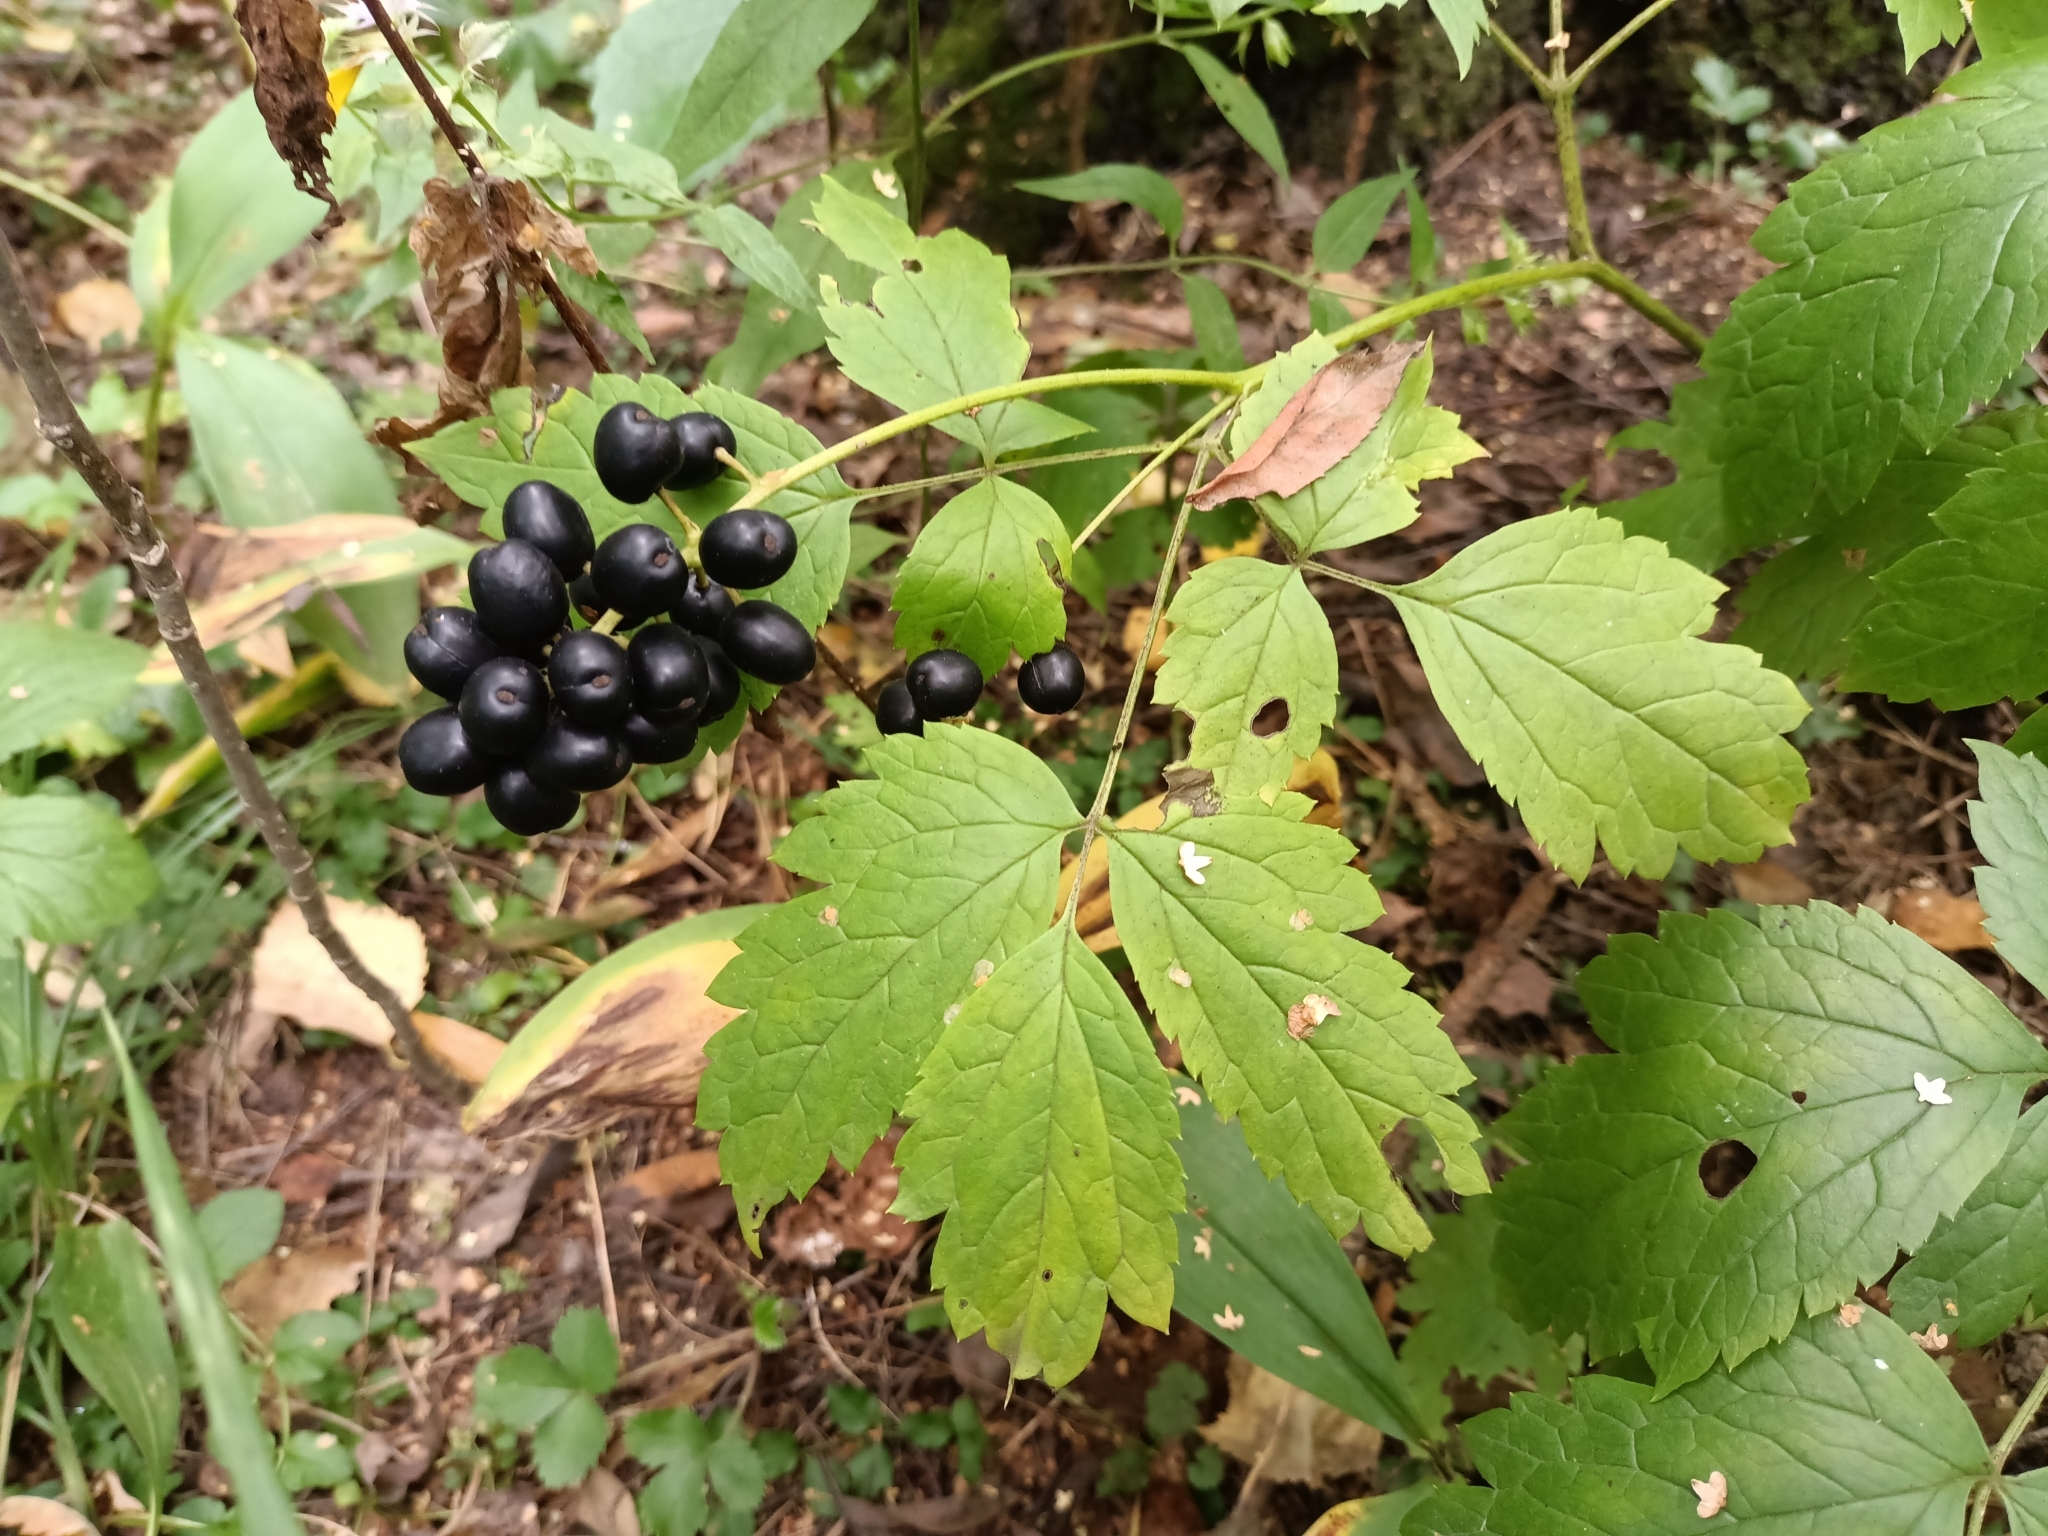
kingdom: Plantae
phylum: Tracheophyta
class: Magnoliopsida
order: Ranunculales
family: Ranunculaceae
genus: Actaea
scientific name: Actaea spicata
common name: Baneberry
